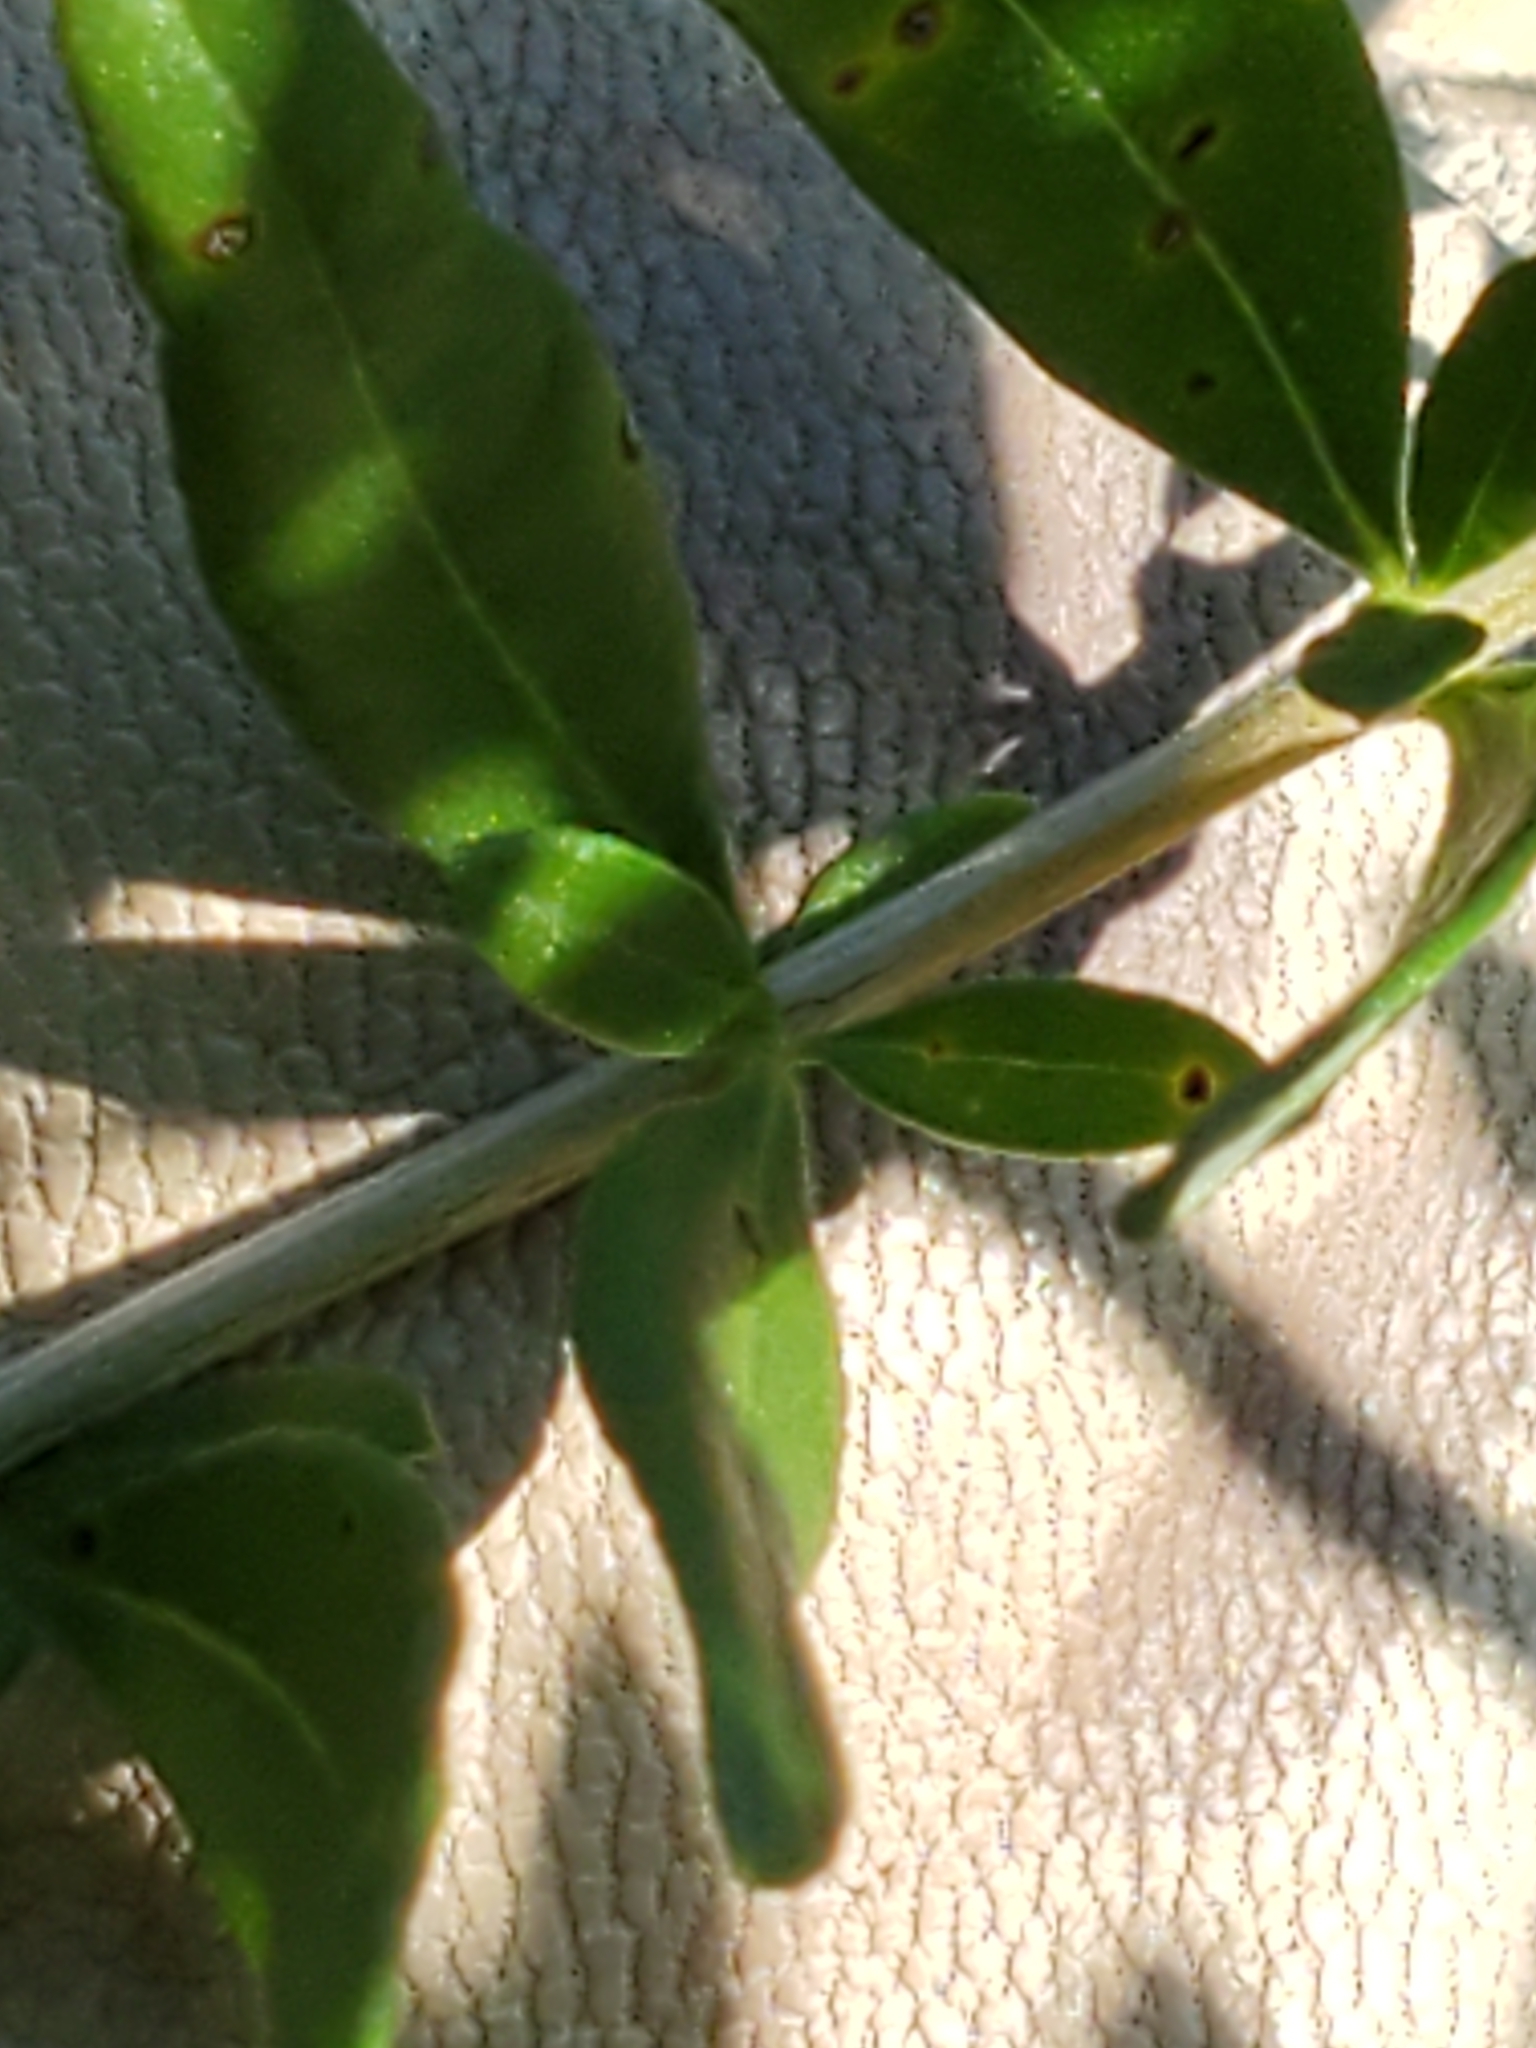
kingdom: Plantae
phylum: Tracheophyta
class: Magnoliopsida
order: Lamiales
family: Verbenaceae
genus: Aloysia
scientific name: Aloysia gratissima
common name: Common bee-brush
